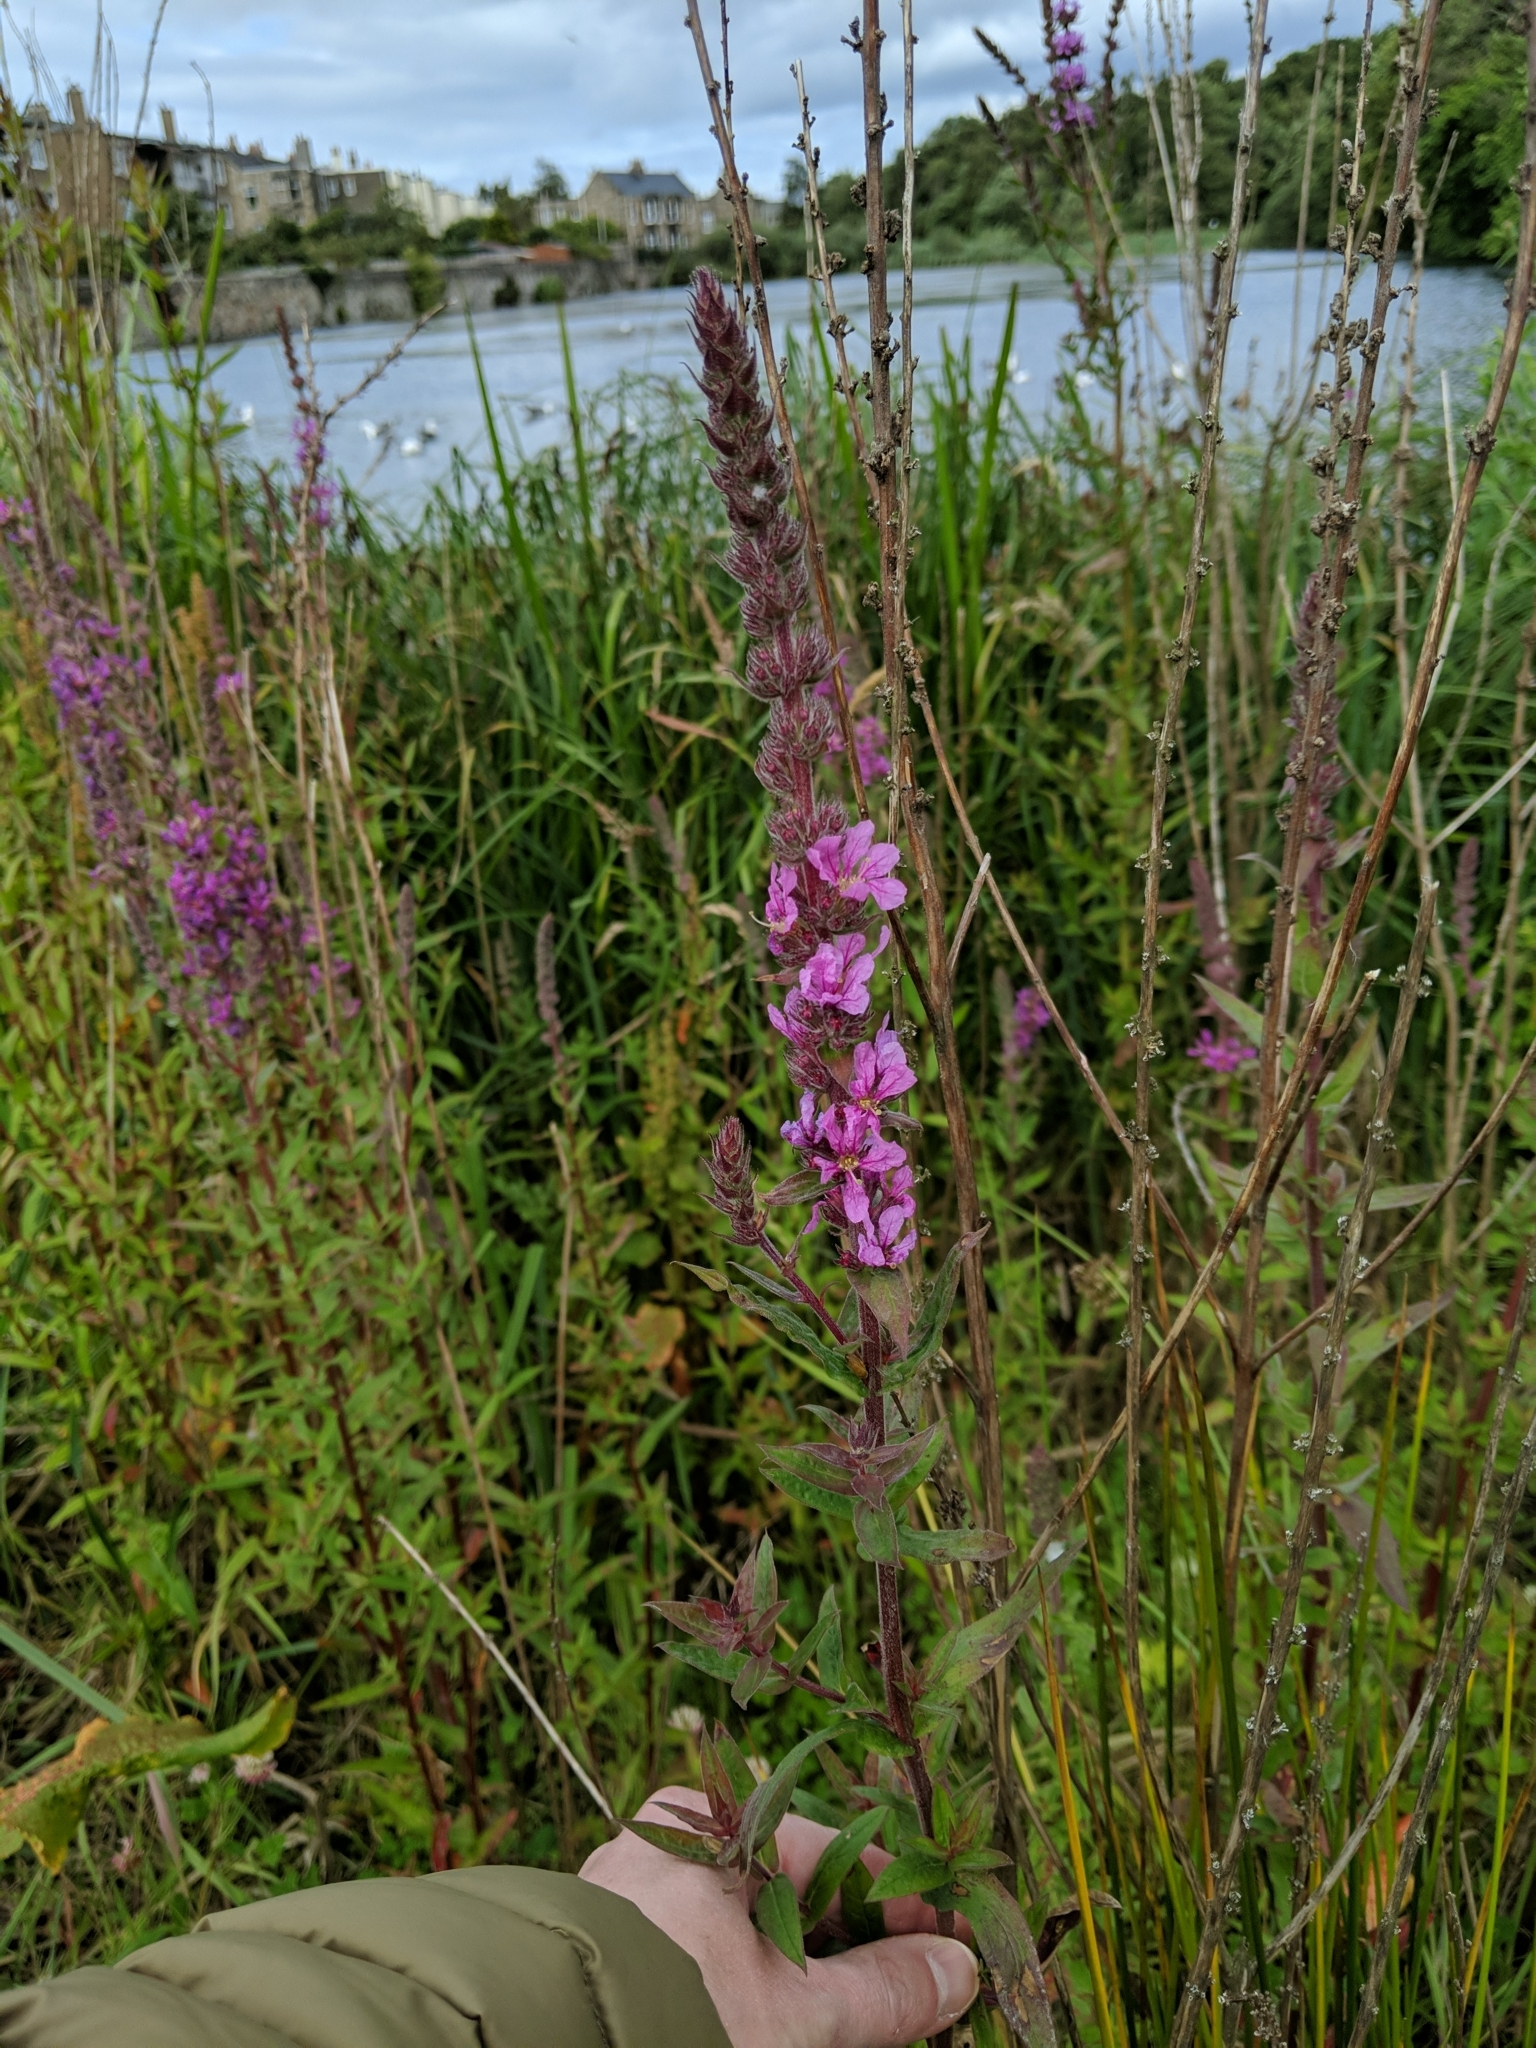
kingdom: Plantae
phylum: Tracheophyta
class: Magnoliopsida
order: Myrtales
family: Lythraceae
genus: Lythrum
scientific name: Lythrum salicaria
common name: Purple loosestrife
